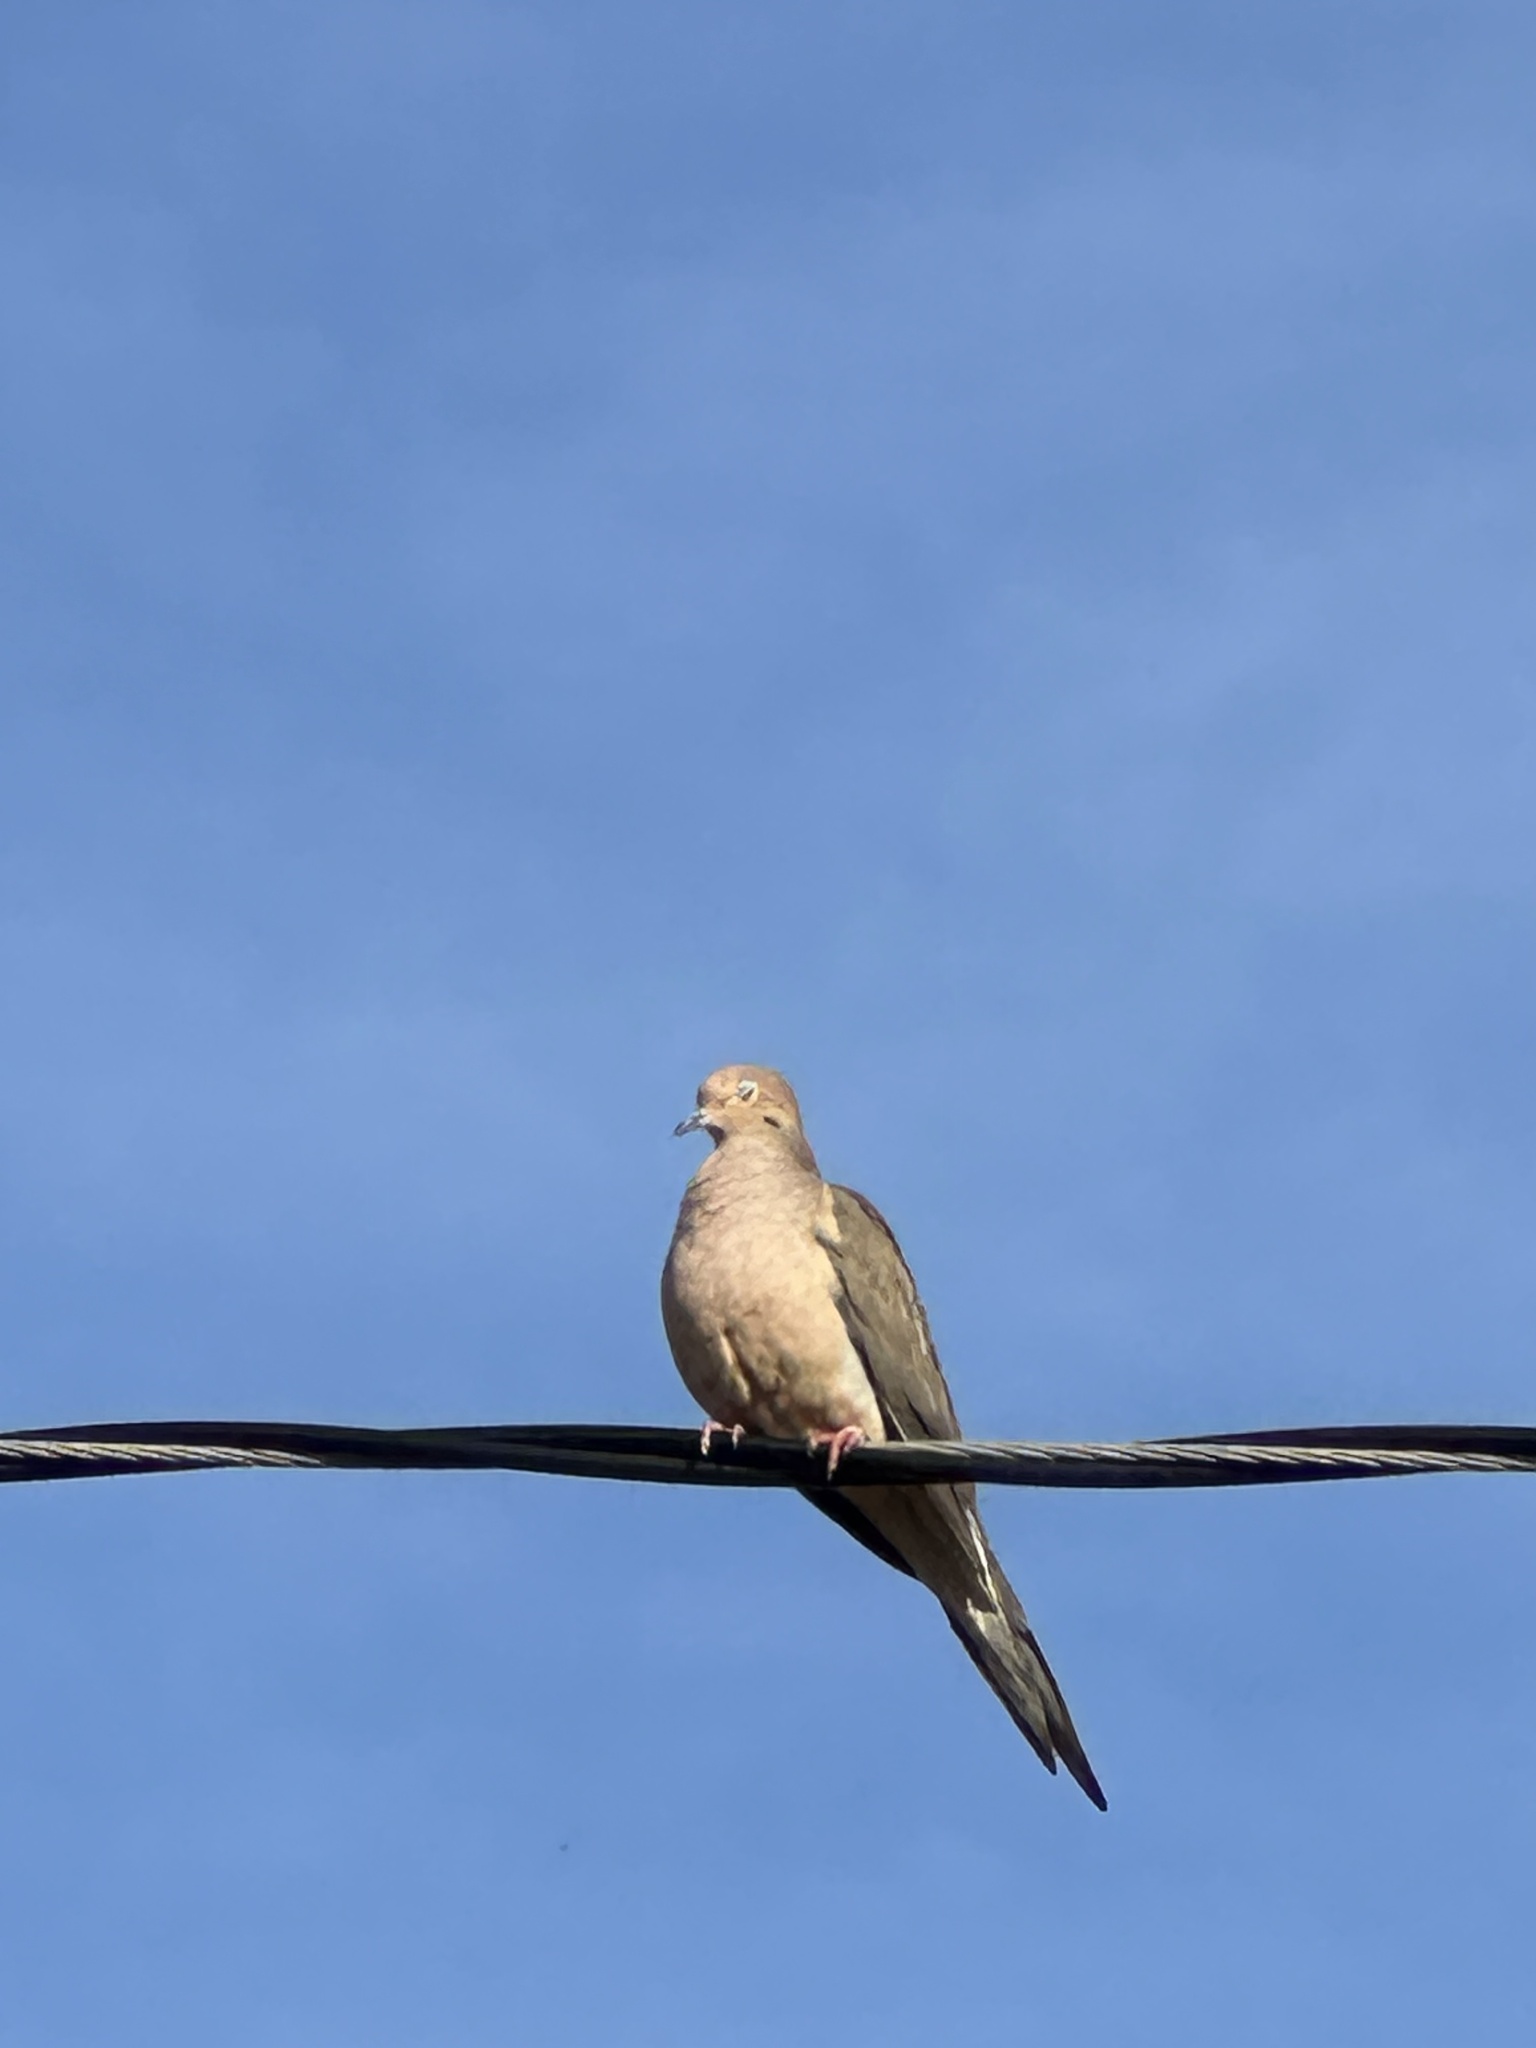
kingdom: Animalia
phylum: Chordata
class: Aves
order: Columbiformes
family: Columbidae
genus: Zenaida
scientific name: Zenaida macroura
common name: Mourning dove
